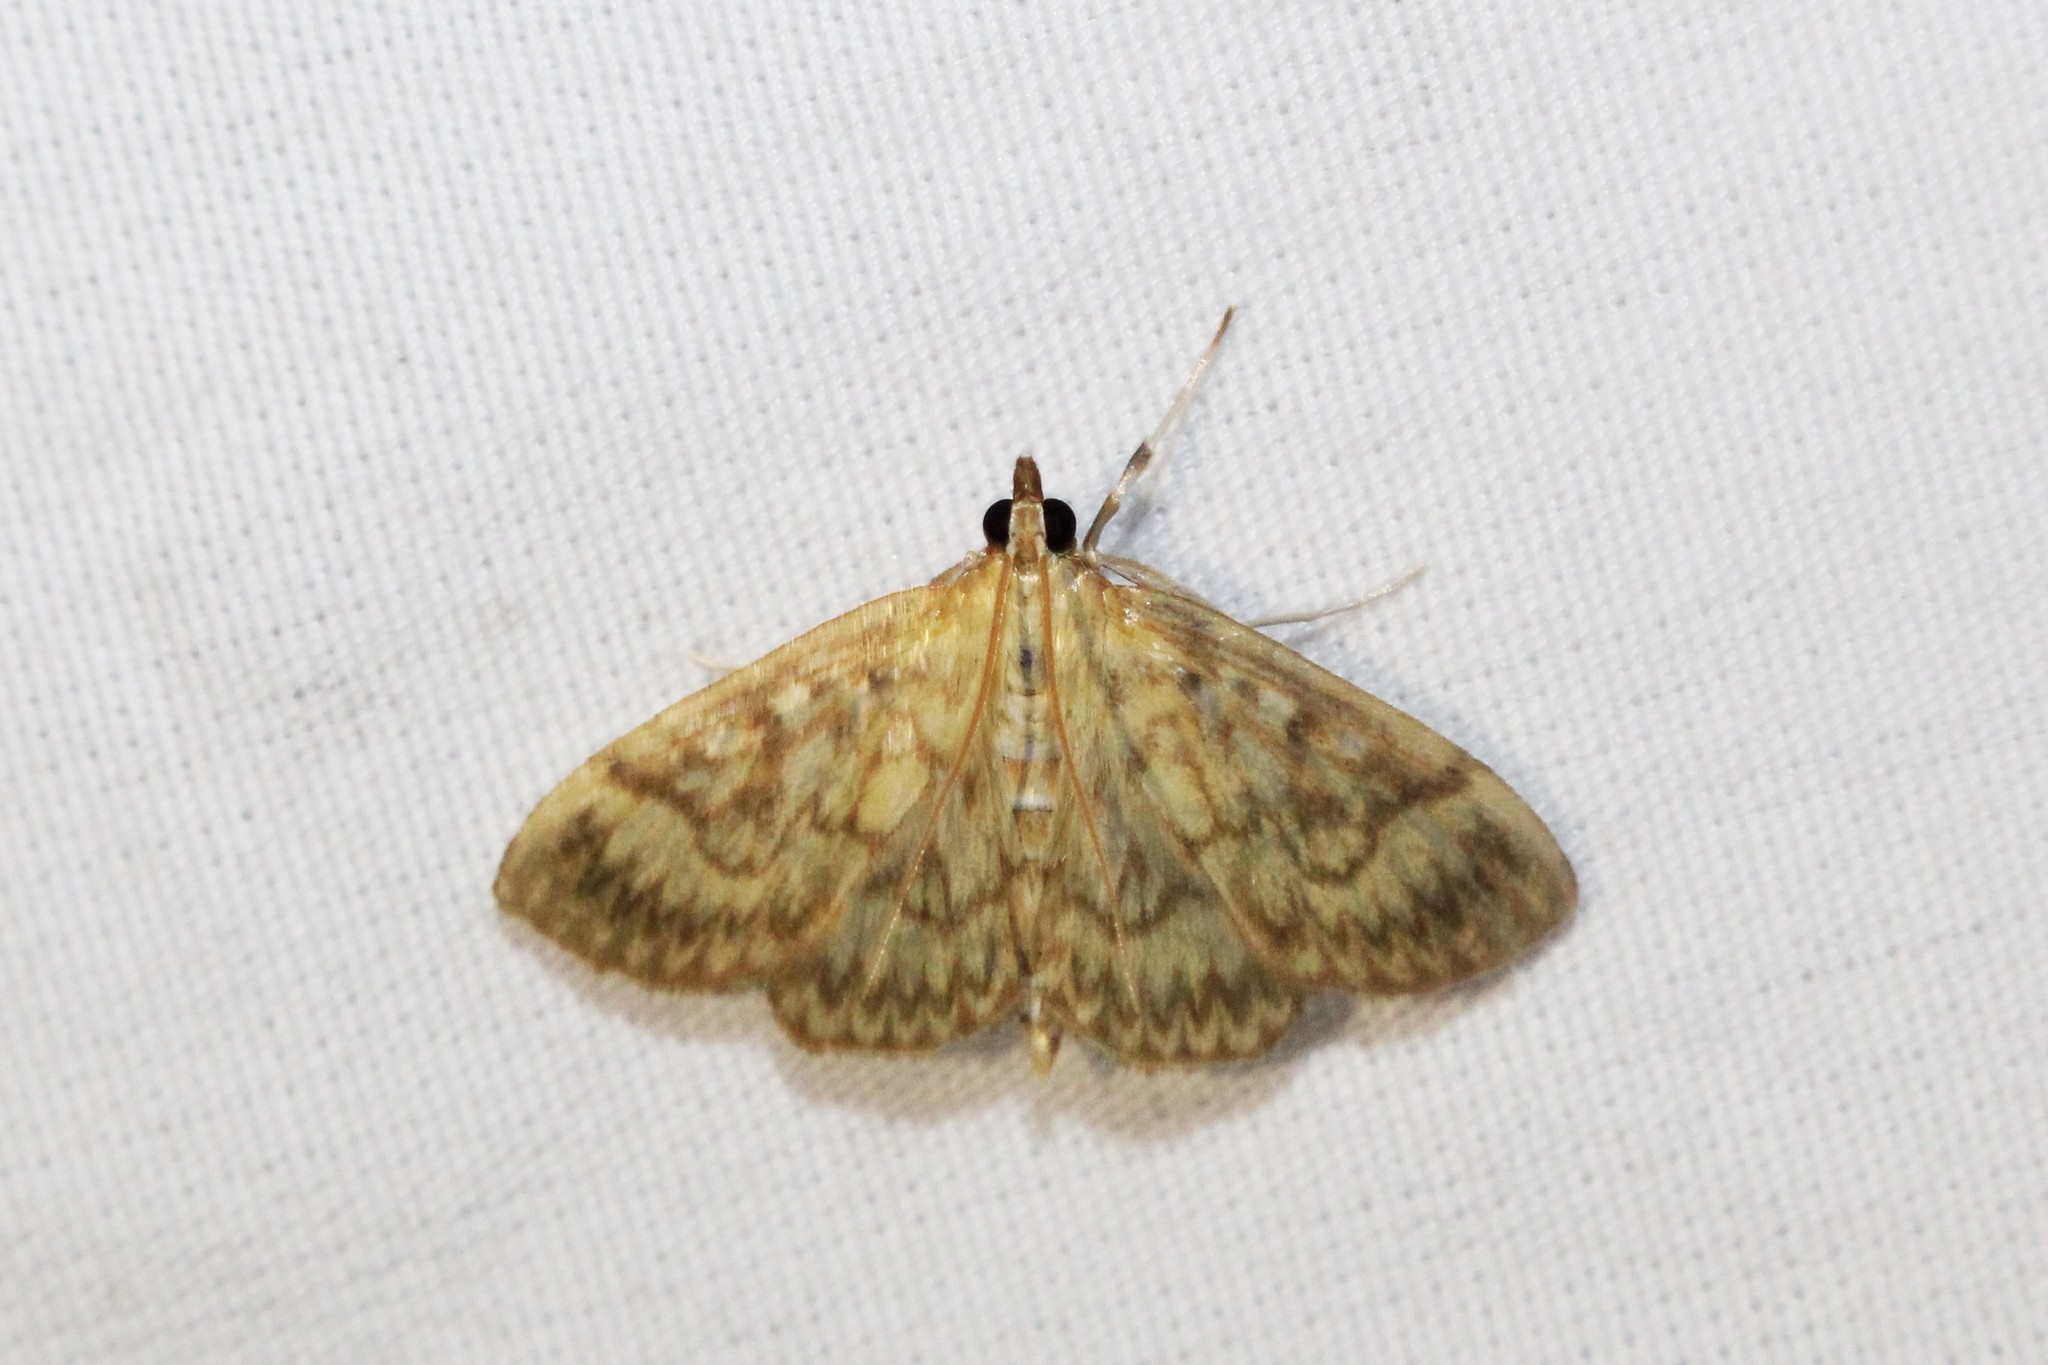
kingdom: Animalia
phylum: Arthropoda
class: Insecta
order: Lepidoptera
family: Crambidae
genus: Crocidophora
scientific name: Crocidophora serratissimalis
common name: Saw-toothed crocidophora moth
